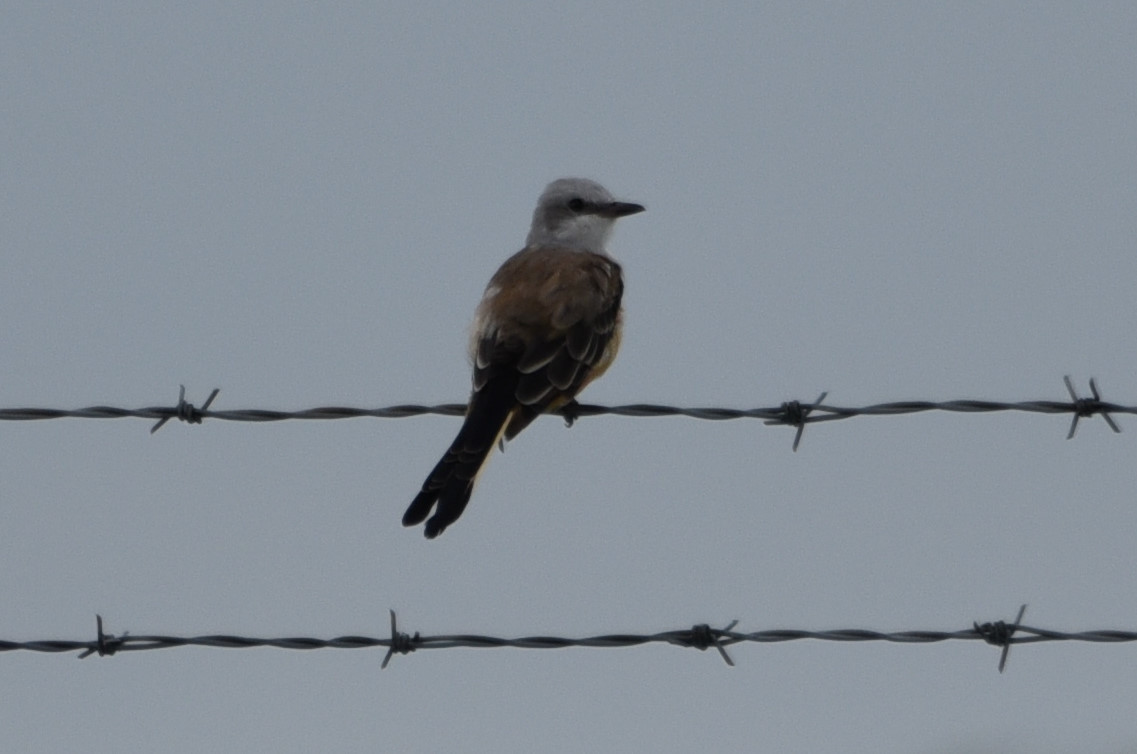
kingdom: Animalia
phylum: Chordata
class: Aves
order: Passeriformes
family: Tyrannidae
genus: Tyrannus
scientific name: Tyrannus forficatus
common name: Scissor-tailed flycatcher
